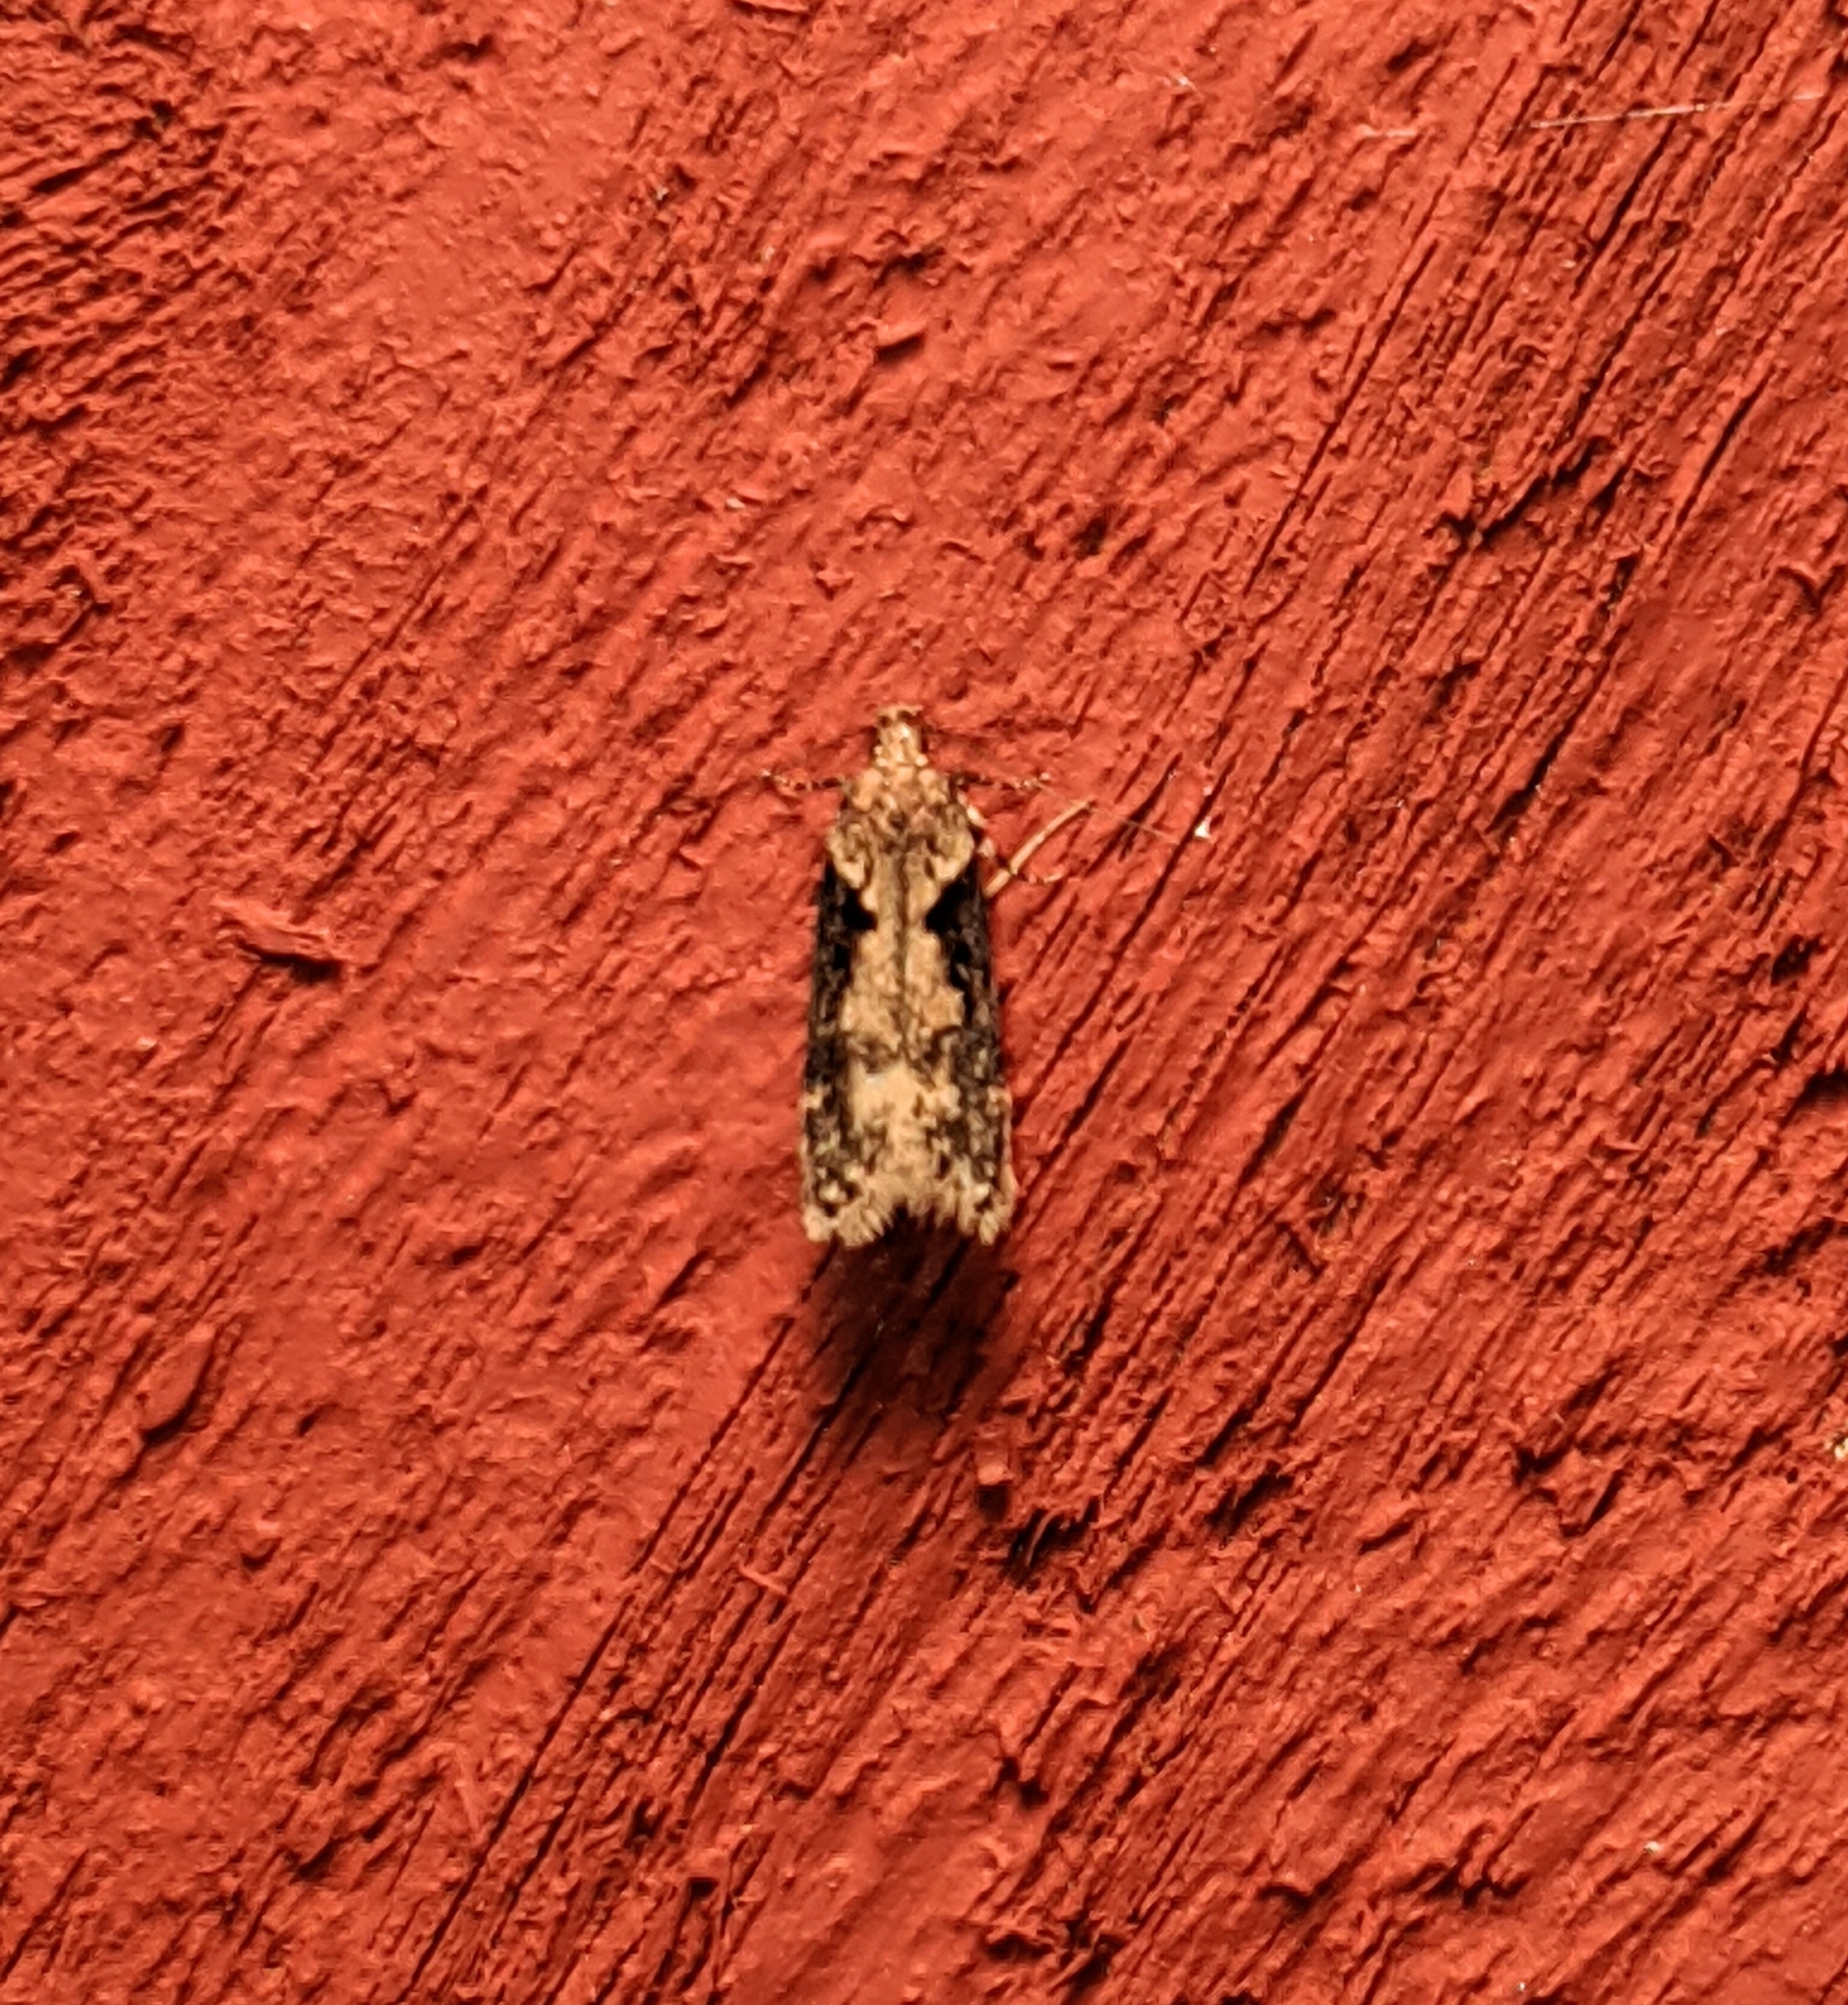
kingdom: Animalia
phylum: Arthropoda
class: Insecta
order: Lepidoptera
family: Gelechiidae
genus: Chionodes
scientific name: Chionodes mediofuscella
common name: Black-smudged chionodes moth
